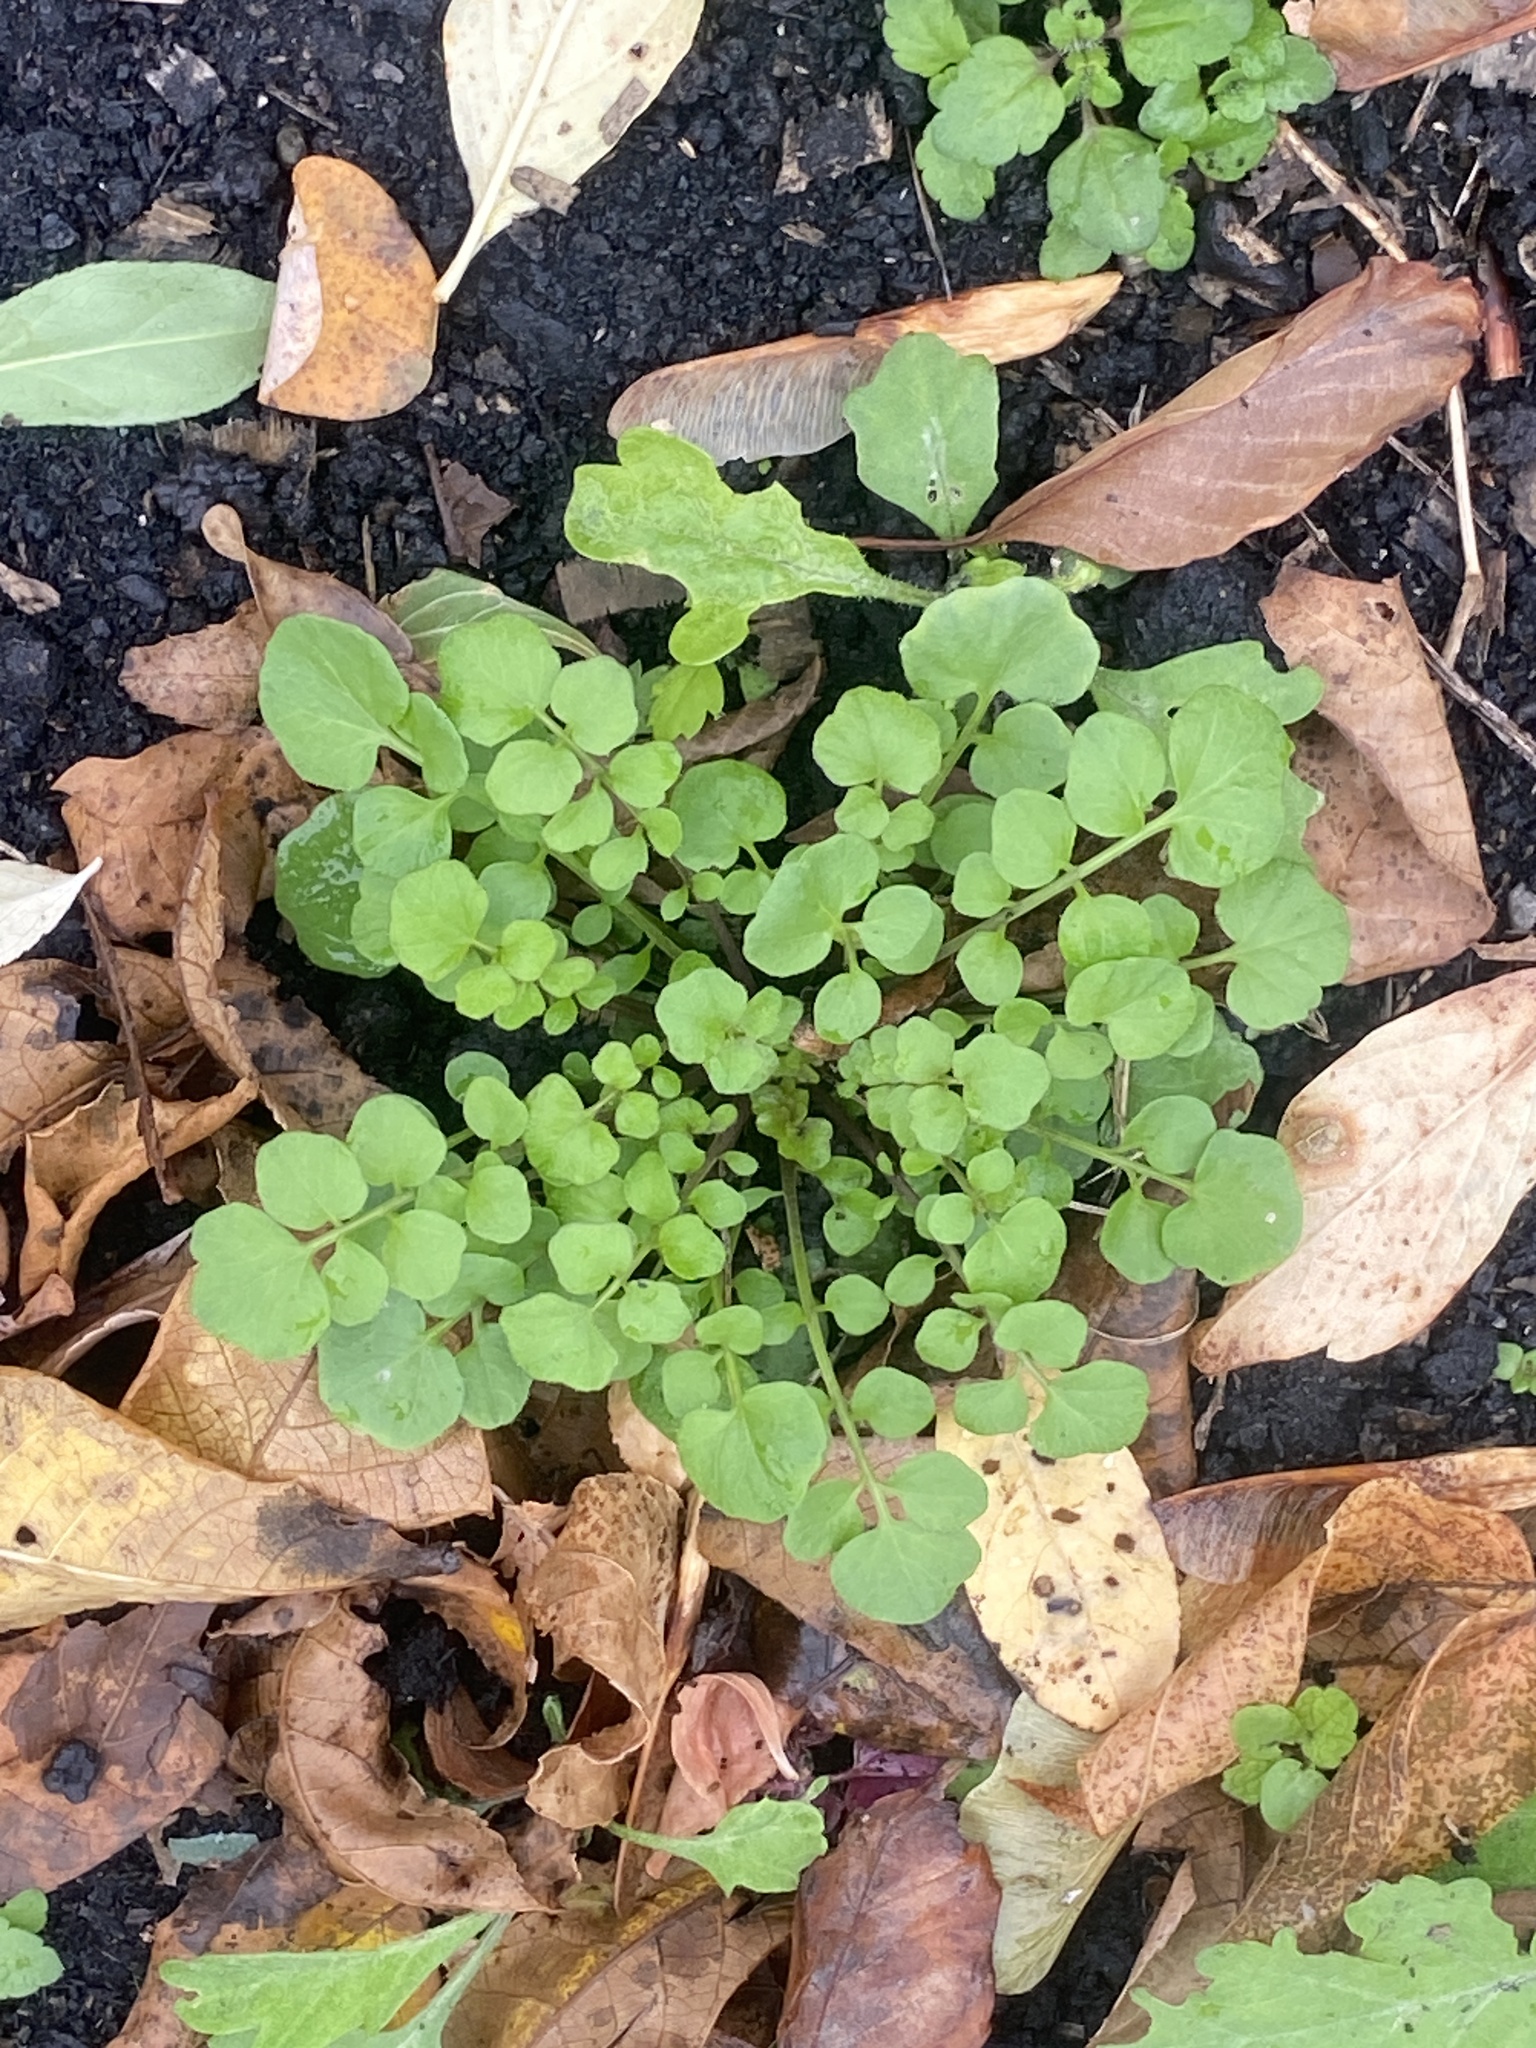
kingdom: Plantae
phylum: Tracheophyta
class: Magnoliopsida
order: Brassicales
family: Brassicaceae
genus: Cardamine
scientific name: Cardamine hirsuta
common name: Hairy bittercress
